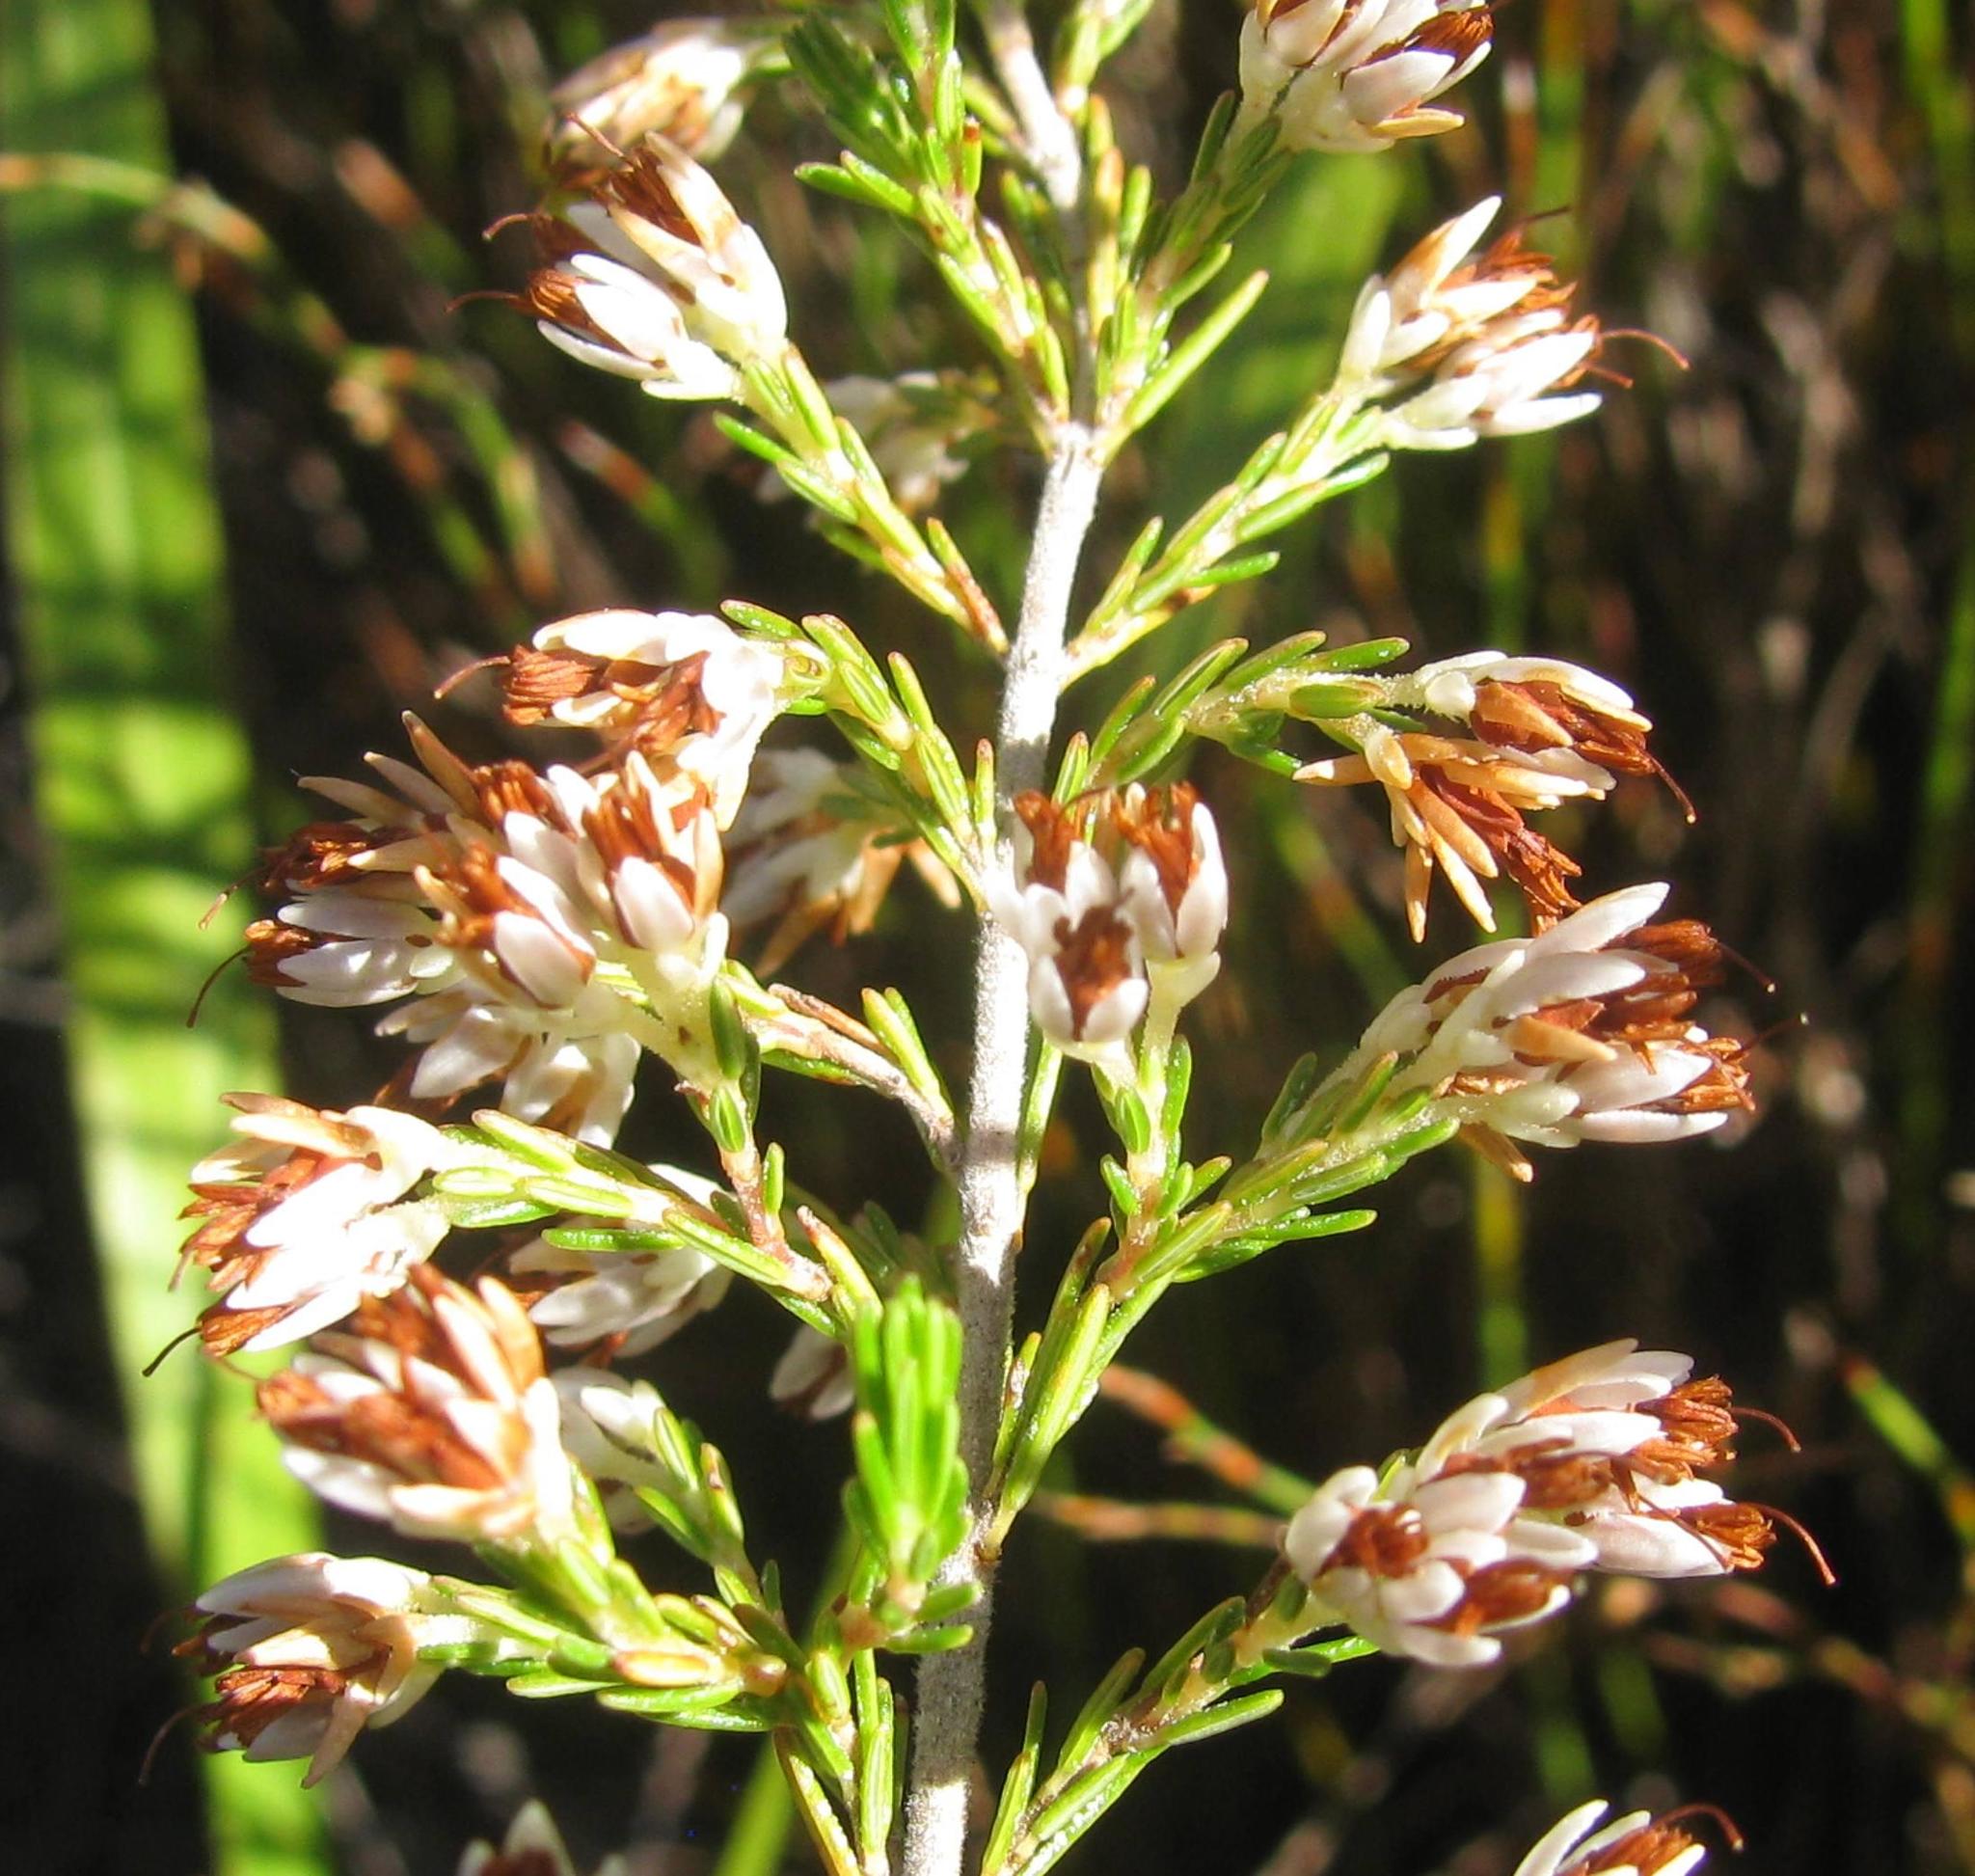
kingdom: Plantae
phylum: Tracheophyta
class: Magnoliopsida
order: Ericales
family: Ericaceae
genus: Erica
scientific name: Erica penicilliformis
